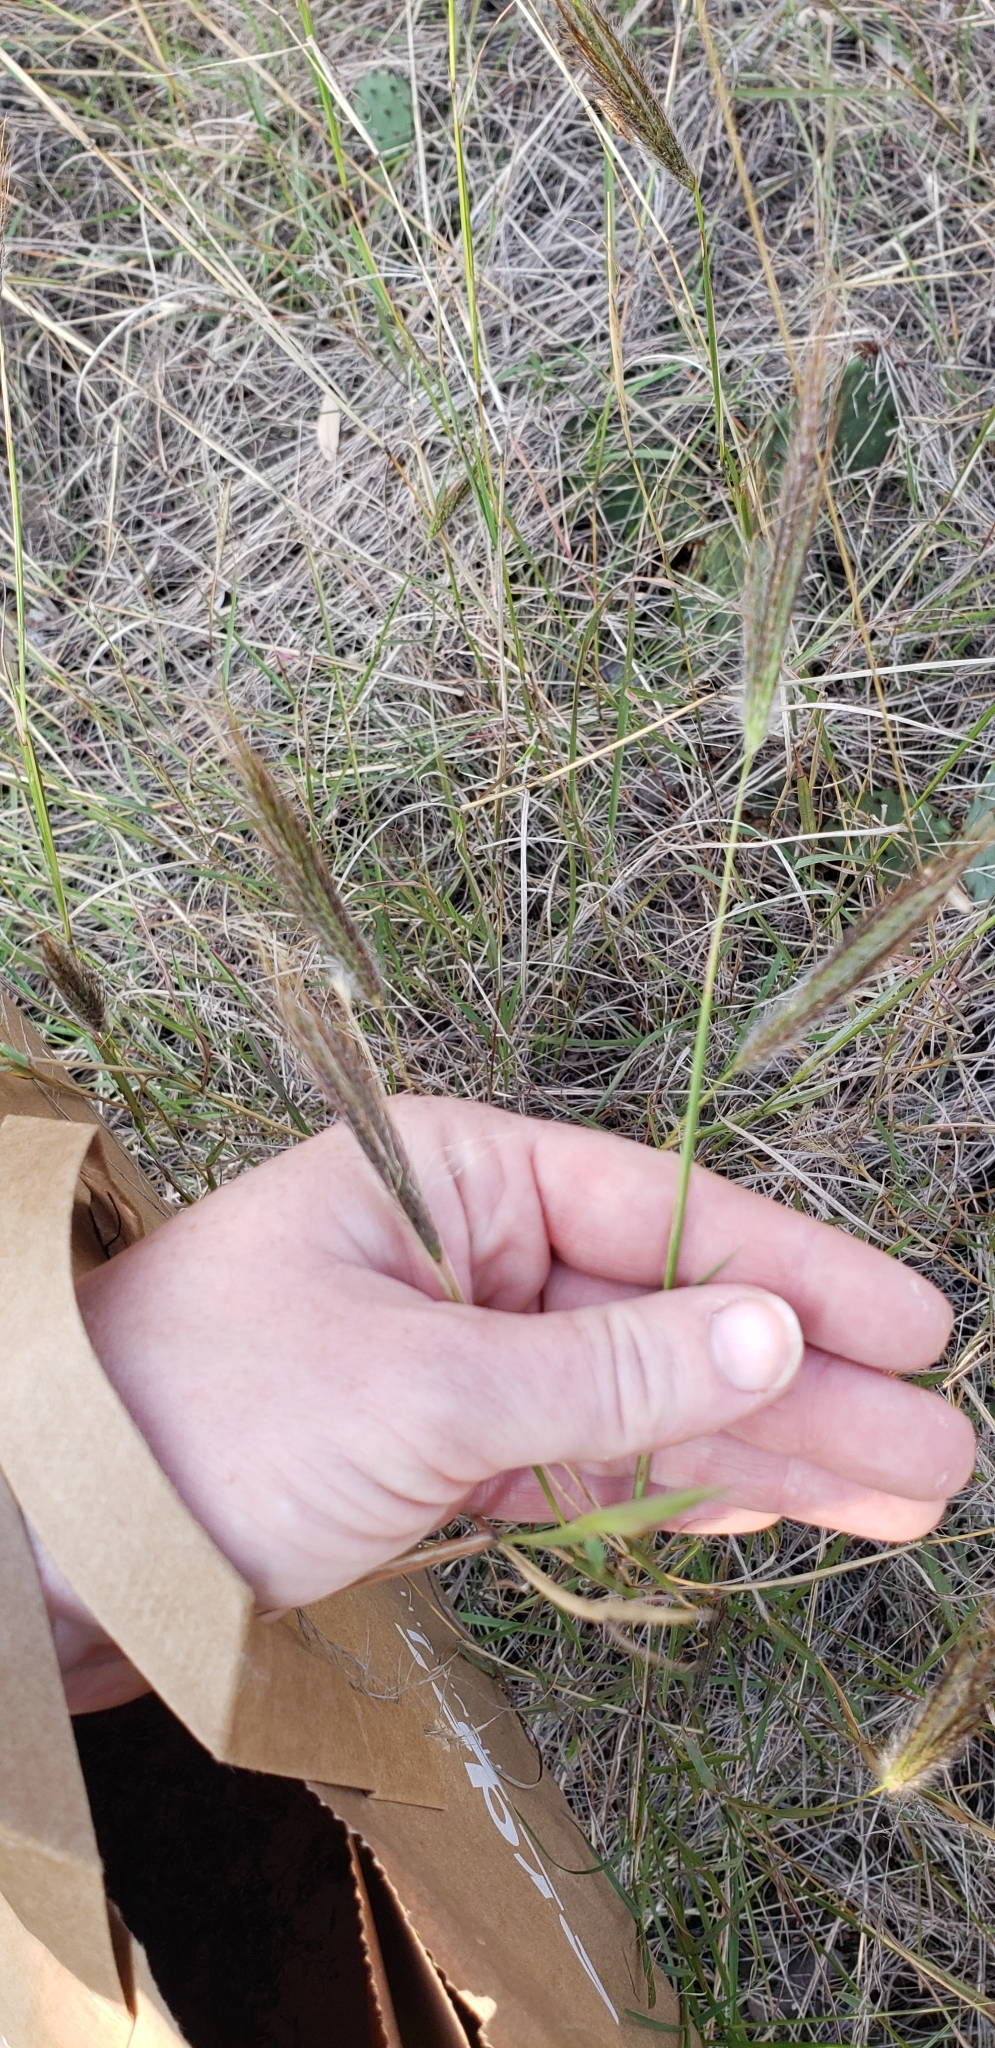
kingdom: Plantae
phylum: Tracheophyta
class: Liliopsida
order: Poales
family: Poaceae
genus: Dichanthium
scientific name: Dichanthium sericeum
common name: Silky bluestem
